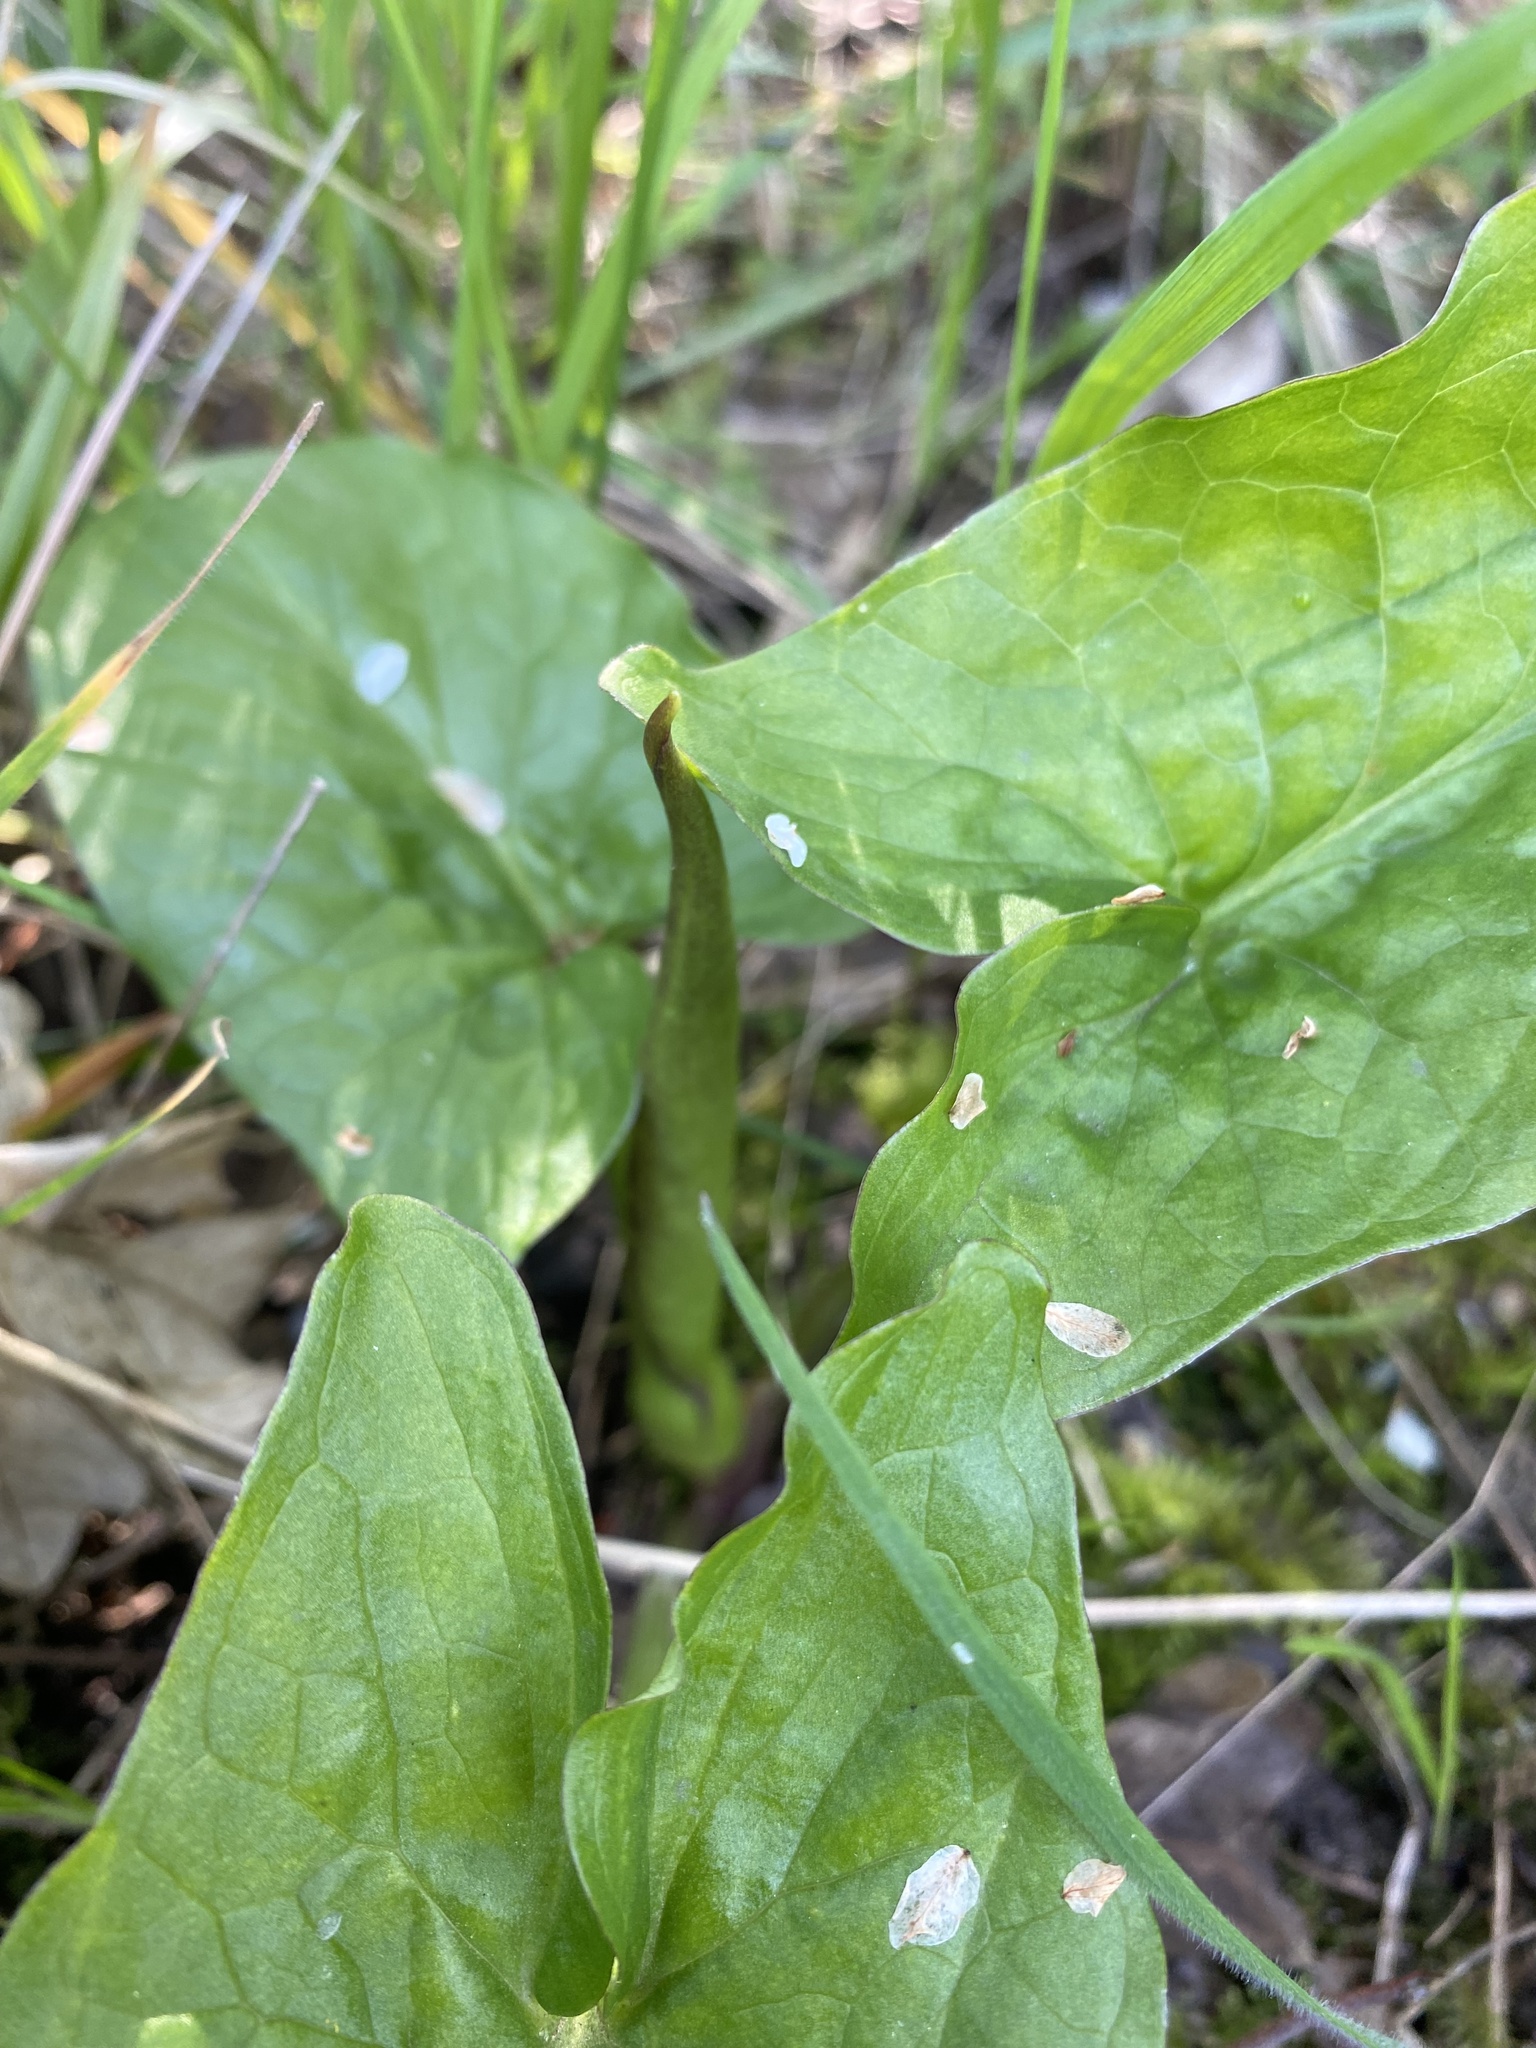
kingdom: Plantae
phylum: Tracheophyta
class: Liliopsida
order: Alismatales
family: Araceae
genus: Arum
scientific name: Arum maculatum
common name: Lords-and-ladies
